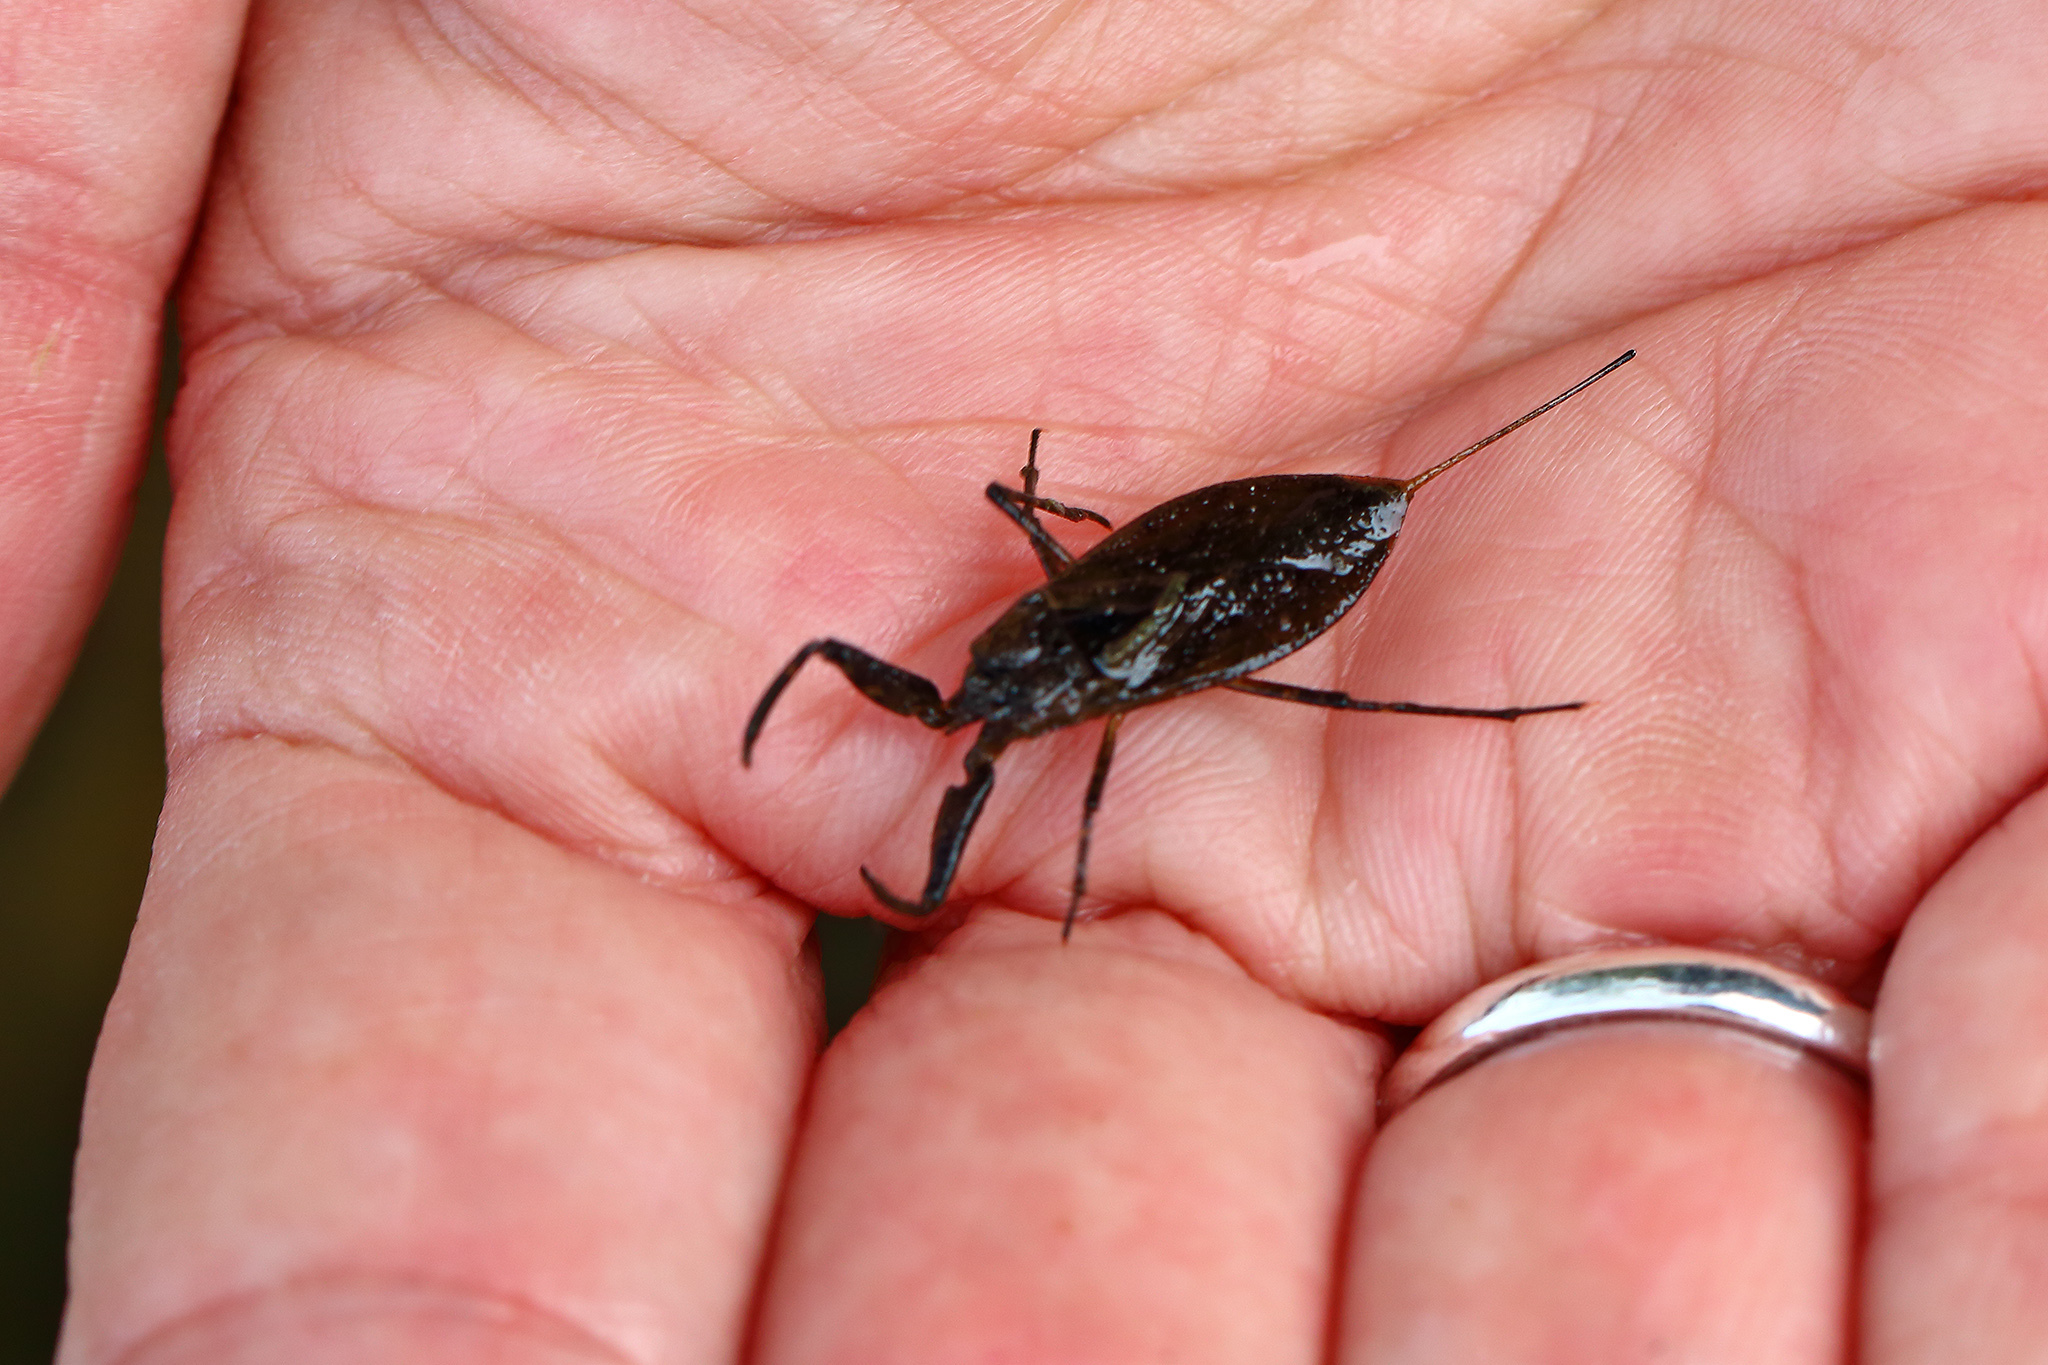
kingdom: Animalia
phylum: Arthropoda
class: Insecta
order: Hemiptera
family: Nepidae
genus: Nepa
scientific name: Nepa cinerea
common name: Water scorpion
